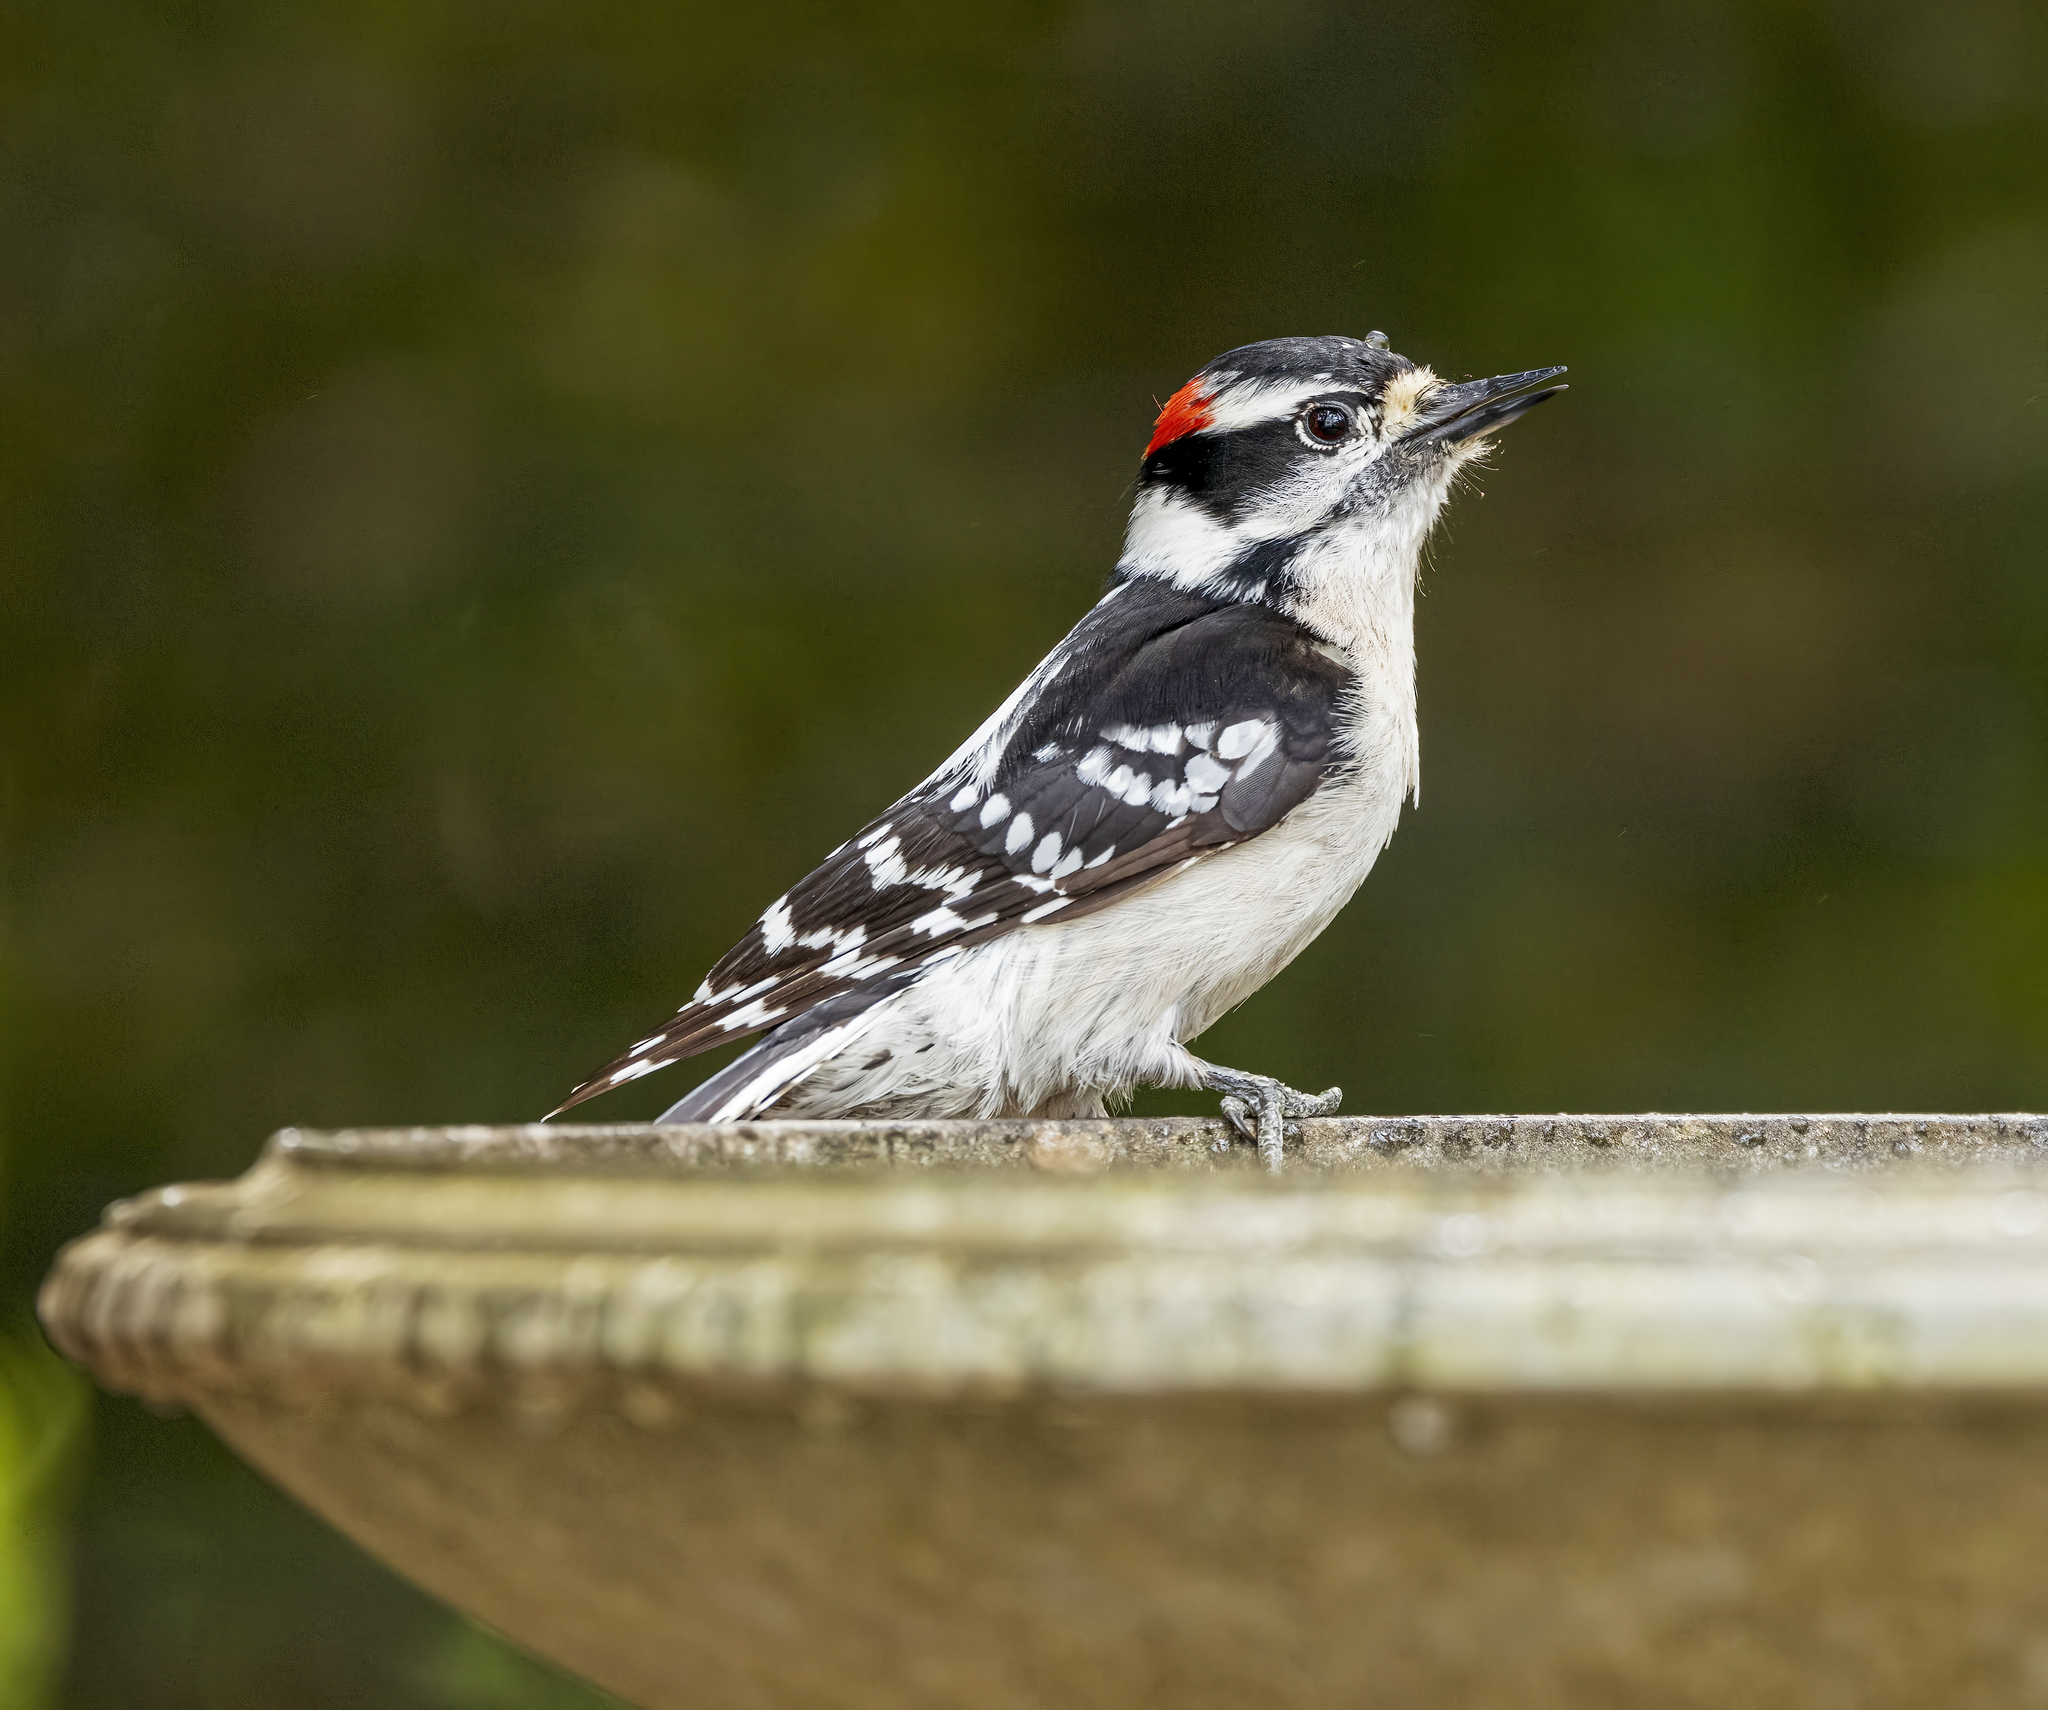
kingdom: Animalia
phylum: Chordata
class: Aves
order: Piciformes
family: Picidae
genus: Dryobates
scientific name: Dryobates pubescens
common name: Downy woodpecker
